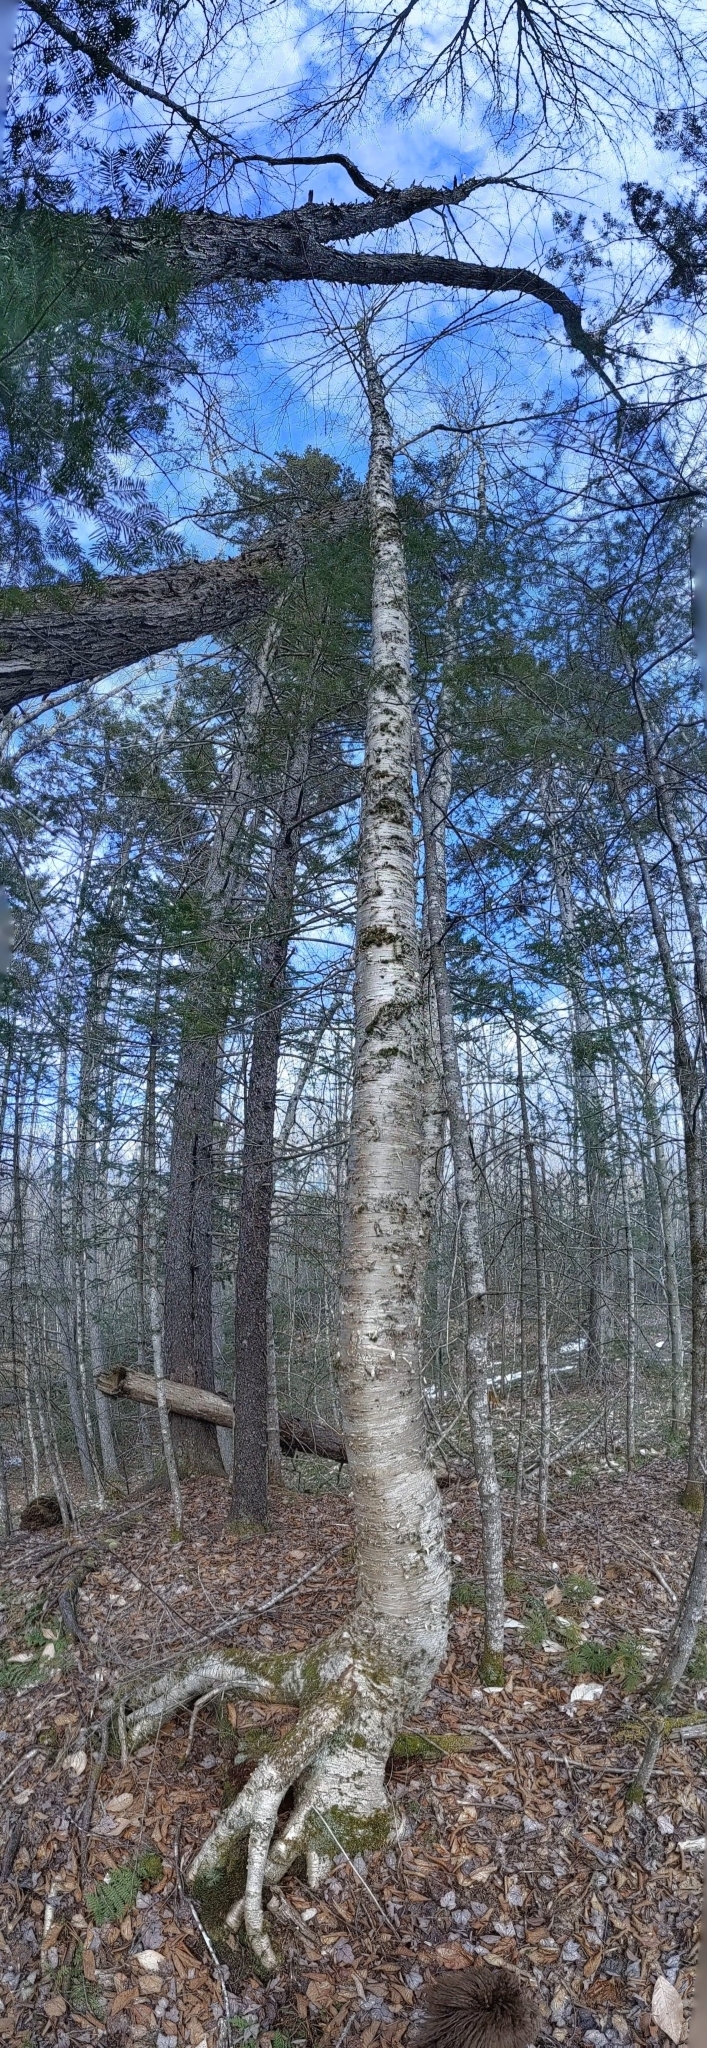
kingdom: Plantae
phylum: Tracheophyta
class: Magnoliopsida
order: Fagales
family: Betulaceae
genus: Betula
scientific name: Betula alleghaniensis
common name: Yellow birch
